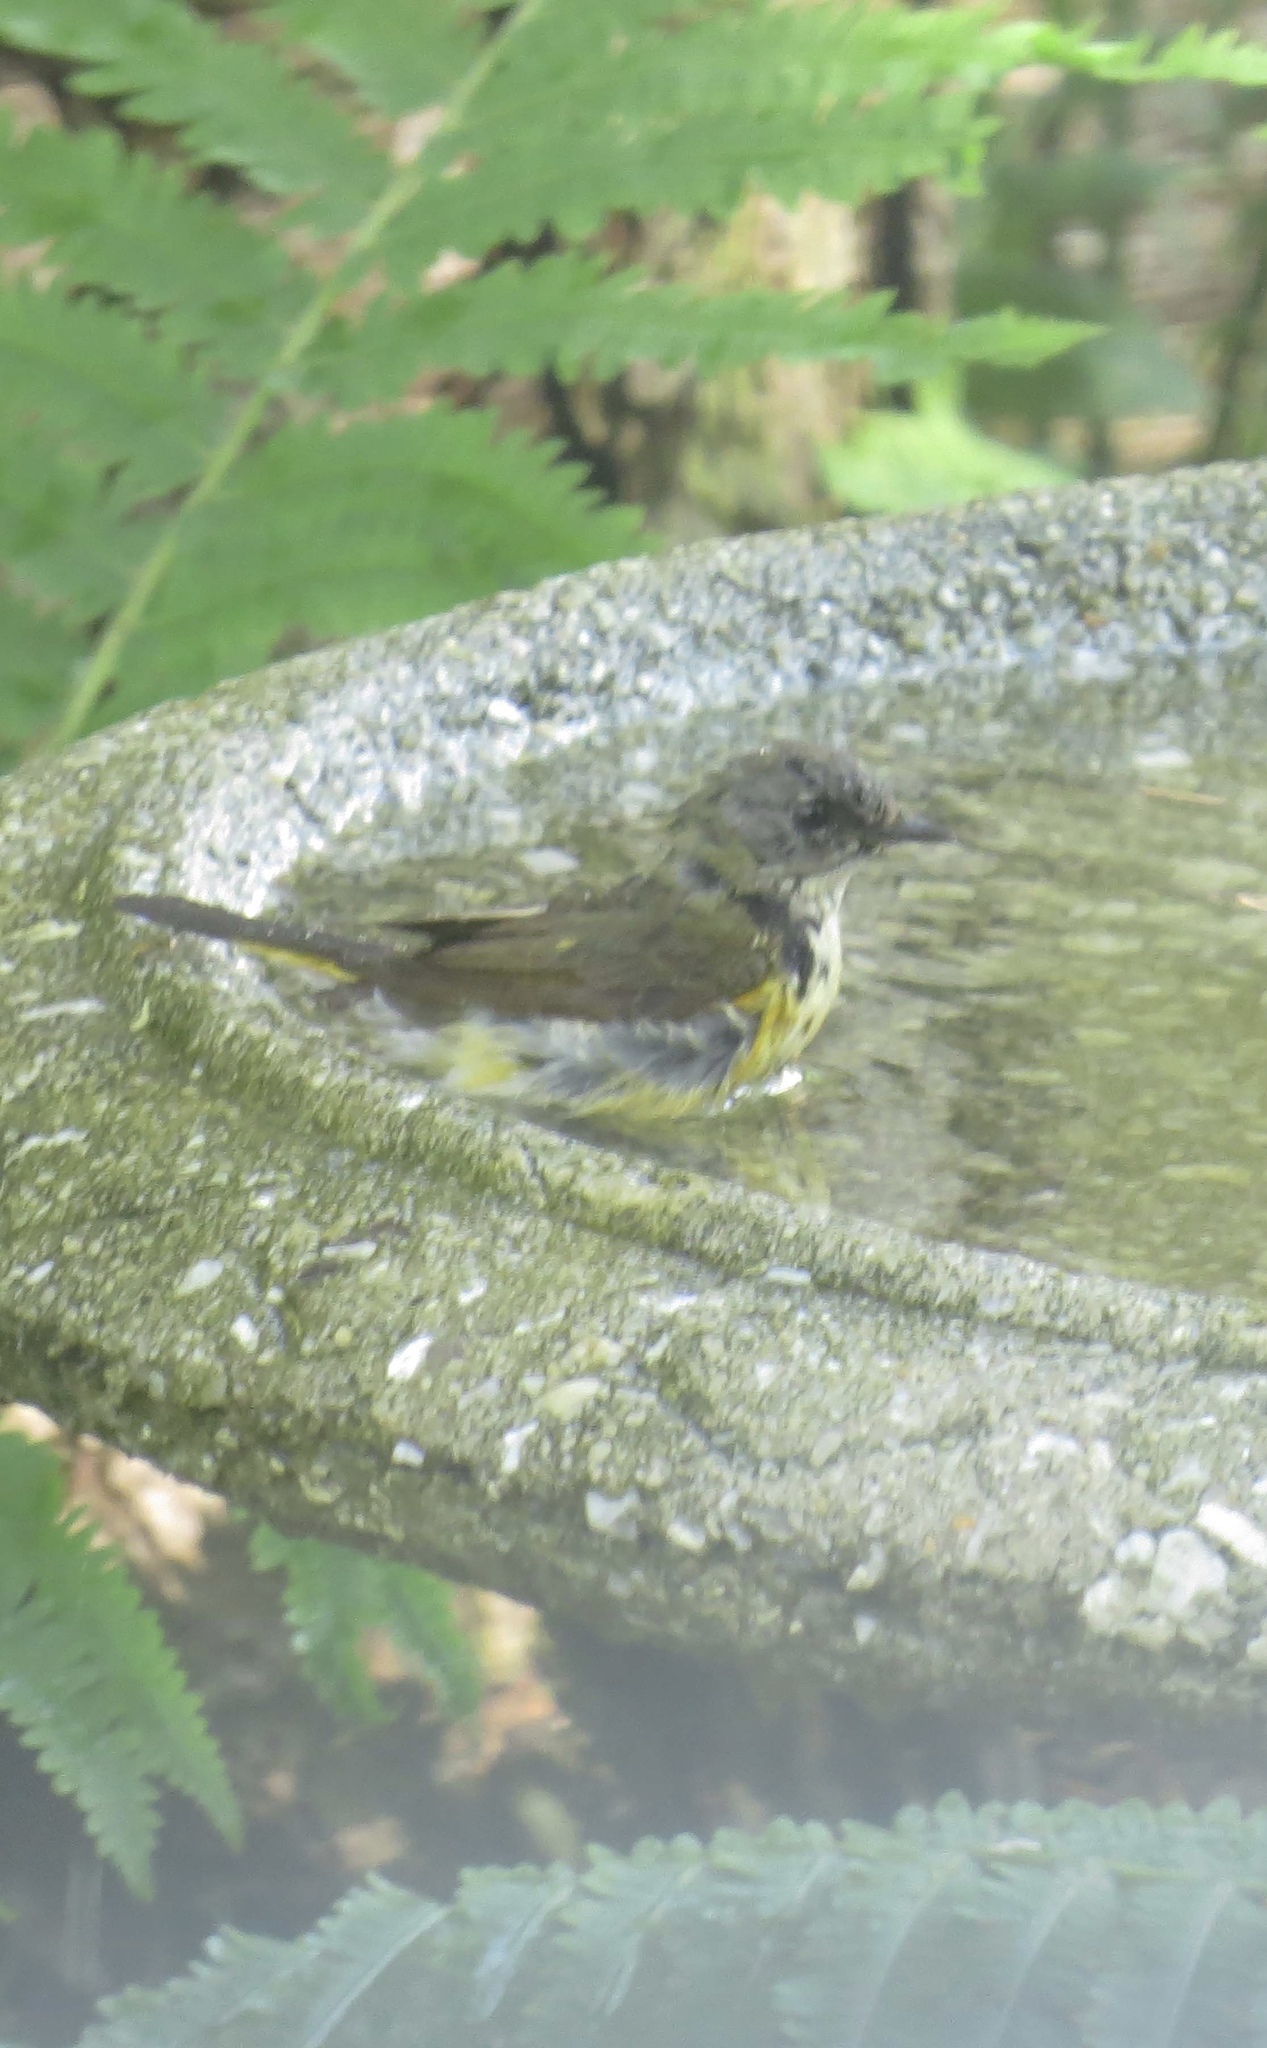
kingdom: Animalia
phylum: Chordata
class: Aves
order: Passeriformes
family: Parulidae
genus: Setophaga
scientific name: Setophaga ruticilla
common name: American redstart
